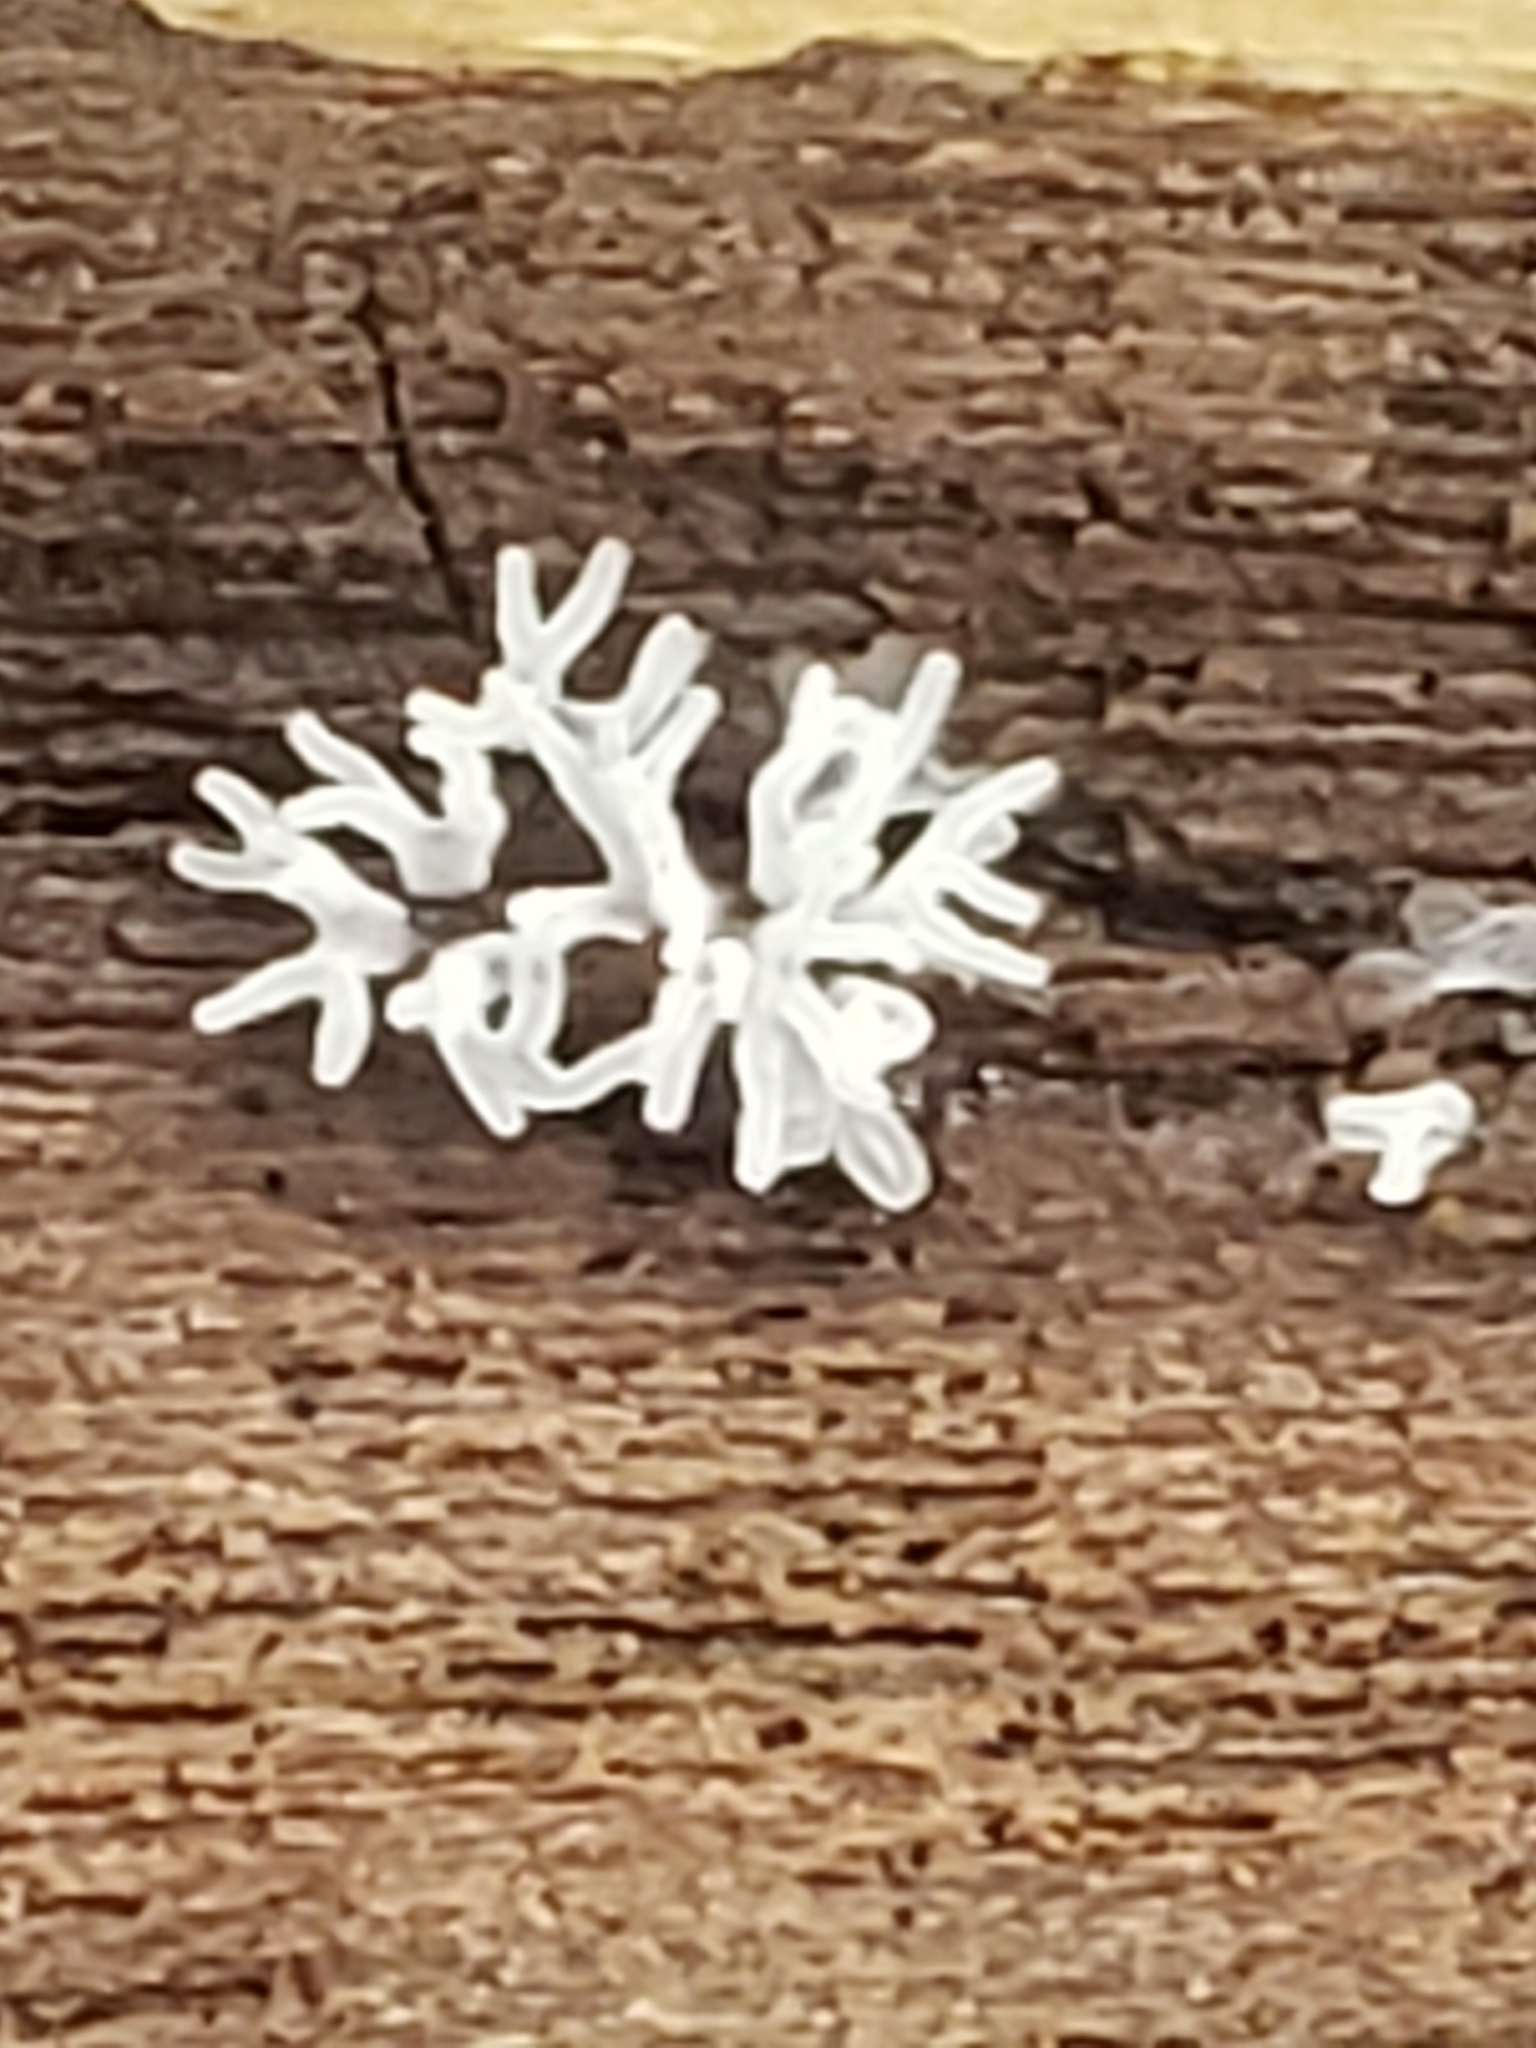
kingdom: Protozoa
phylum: Mycetozoa
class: Protosteliomycetes
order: Ceratiomyxales
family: Ceratiomyxaceae
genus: Ceratiomyxa
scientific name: Ceratiomyxa fruticulosa
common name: Honeycomb coral slime mold
